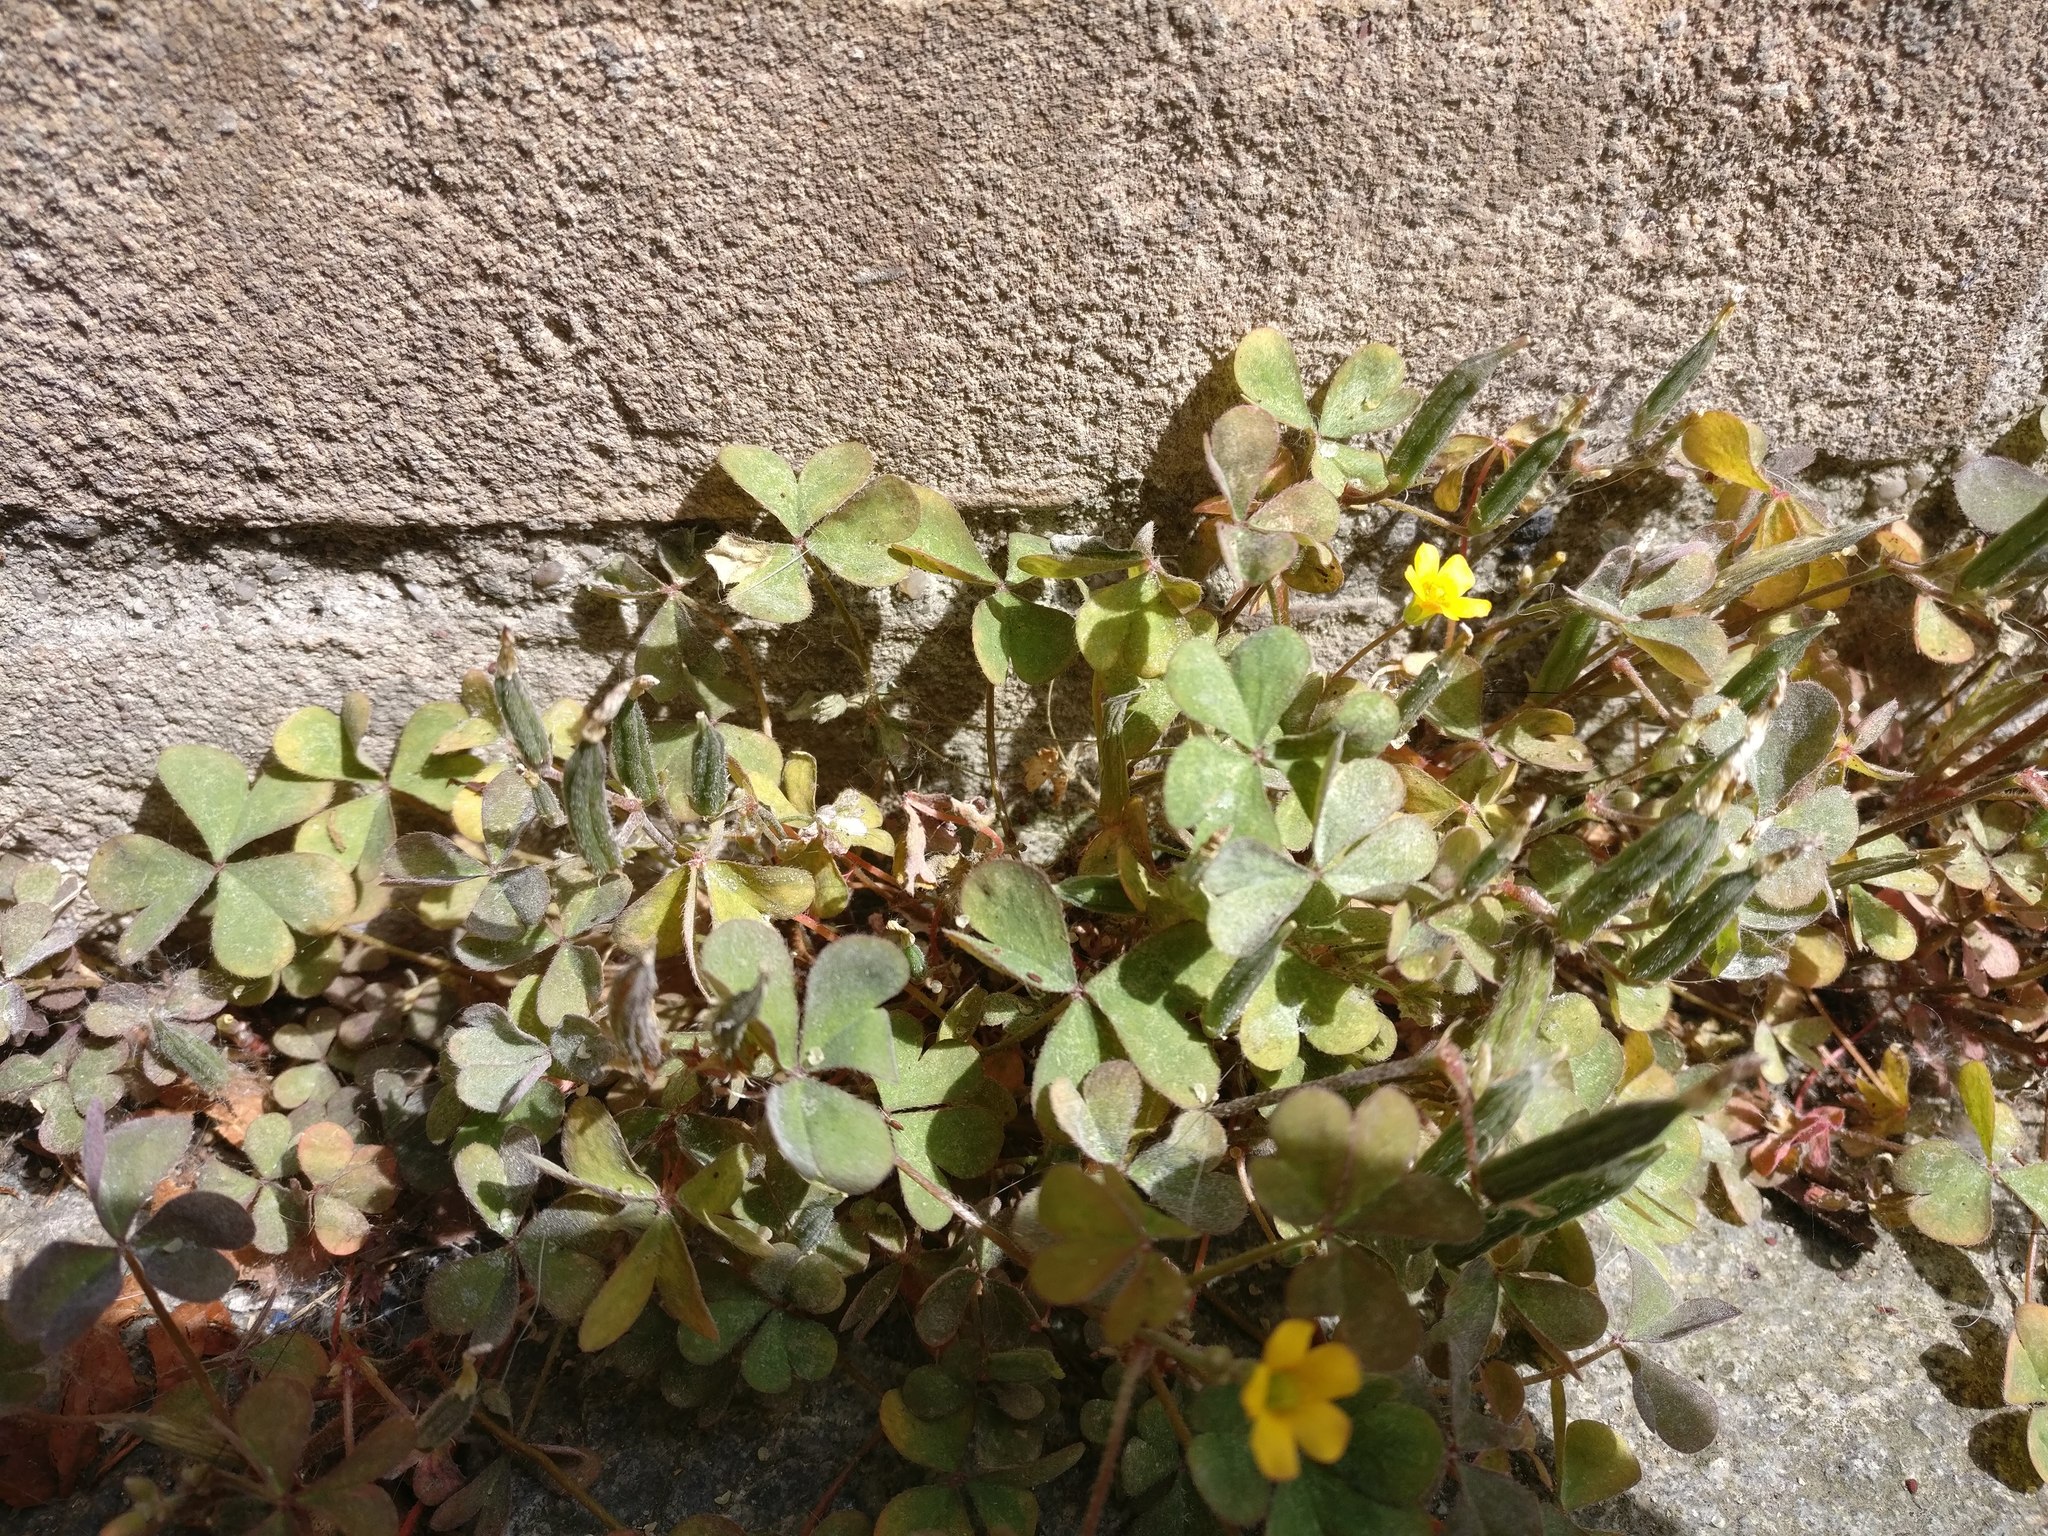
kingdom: Plantae
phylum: Tracheophyta
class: Magnoliopsida
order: Oxalidales
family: Oxalidaceae
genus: Oxalis
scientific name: Oxalis corniculata
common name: Procumbent yellow-sorrel
